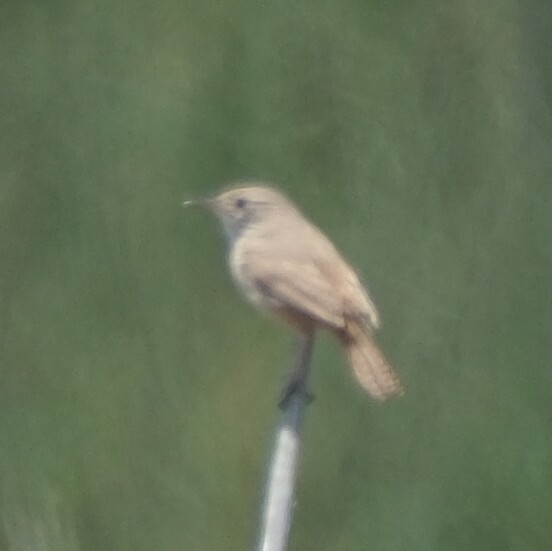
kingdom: Animalia
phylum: Chordata
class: Aves
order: Passeriformes
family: Troglodytidae
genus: Troglodytes
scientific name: Troglodytes aedon
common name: House wren
